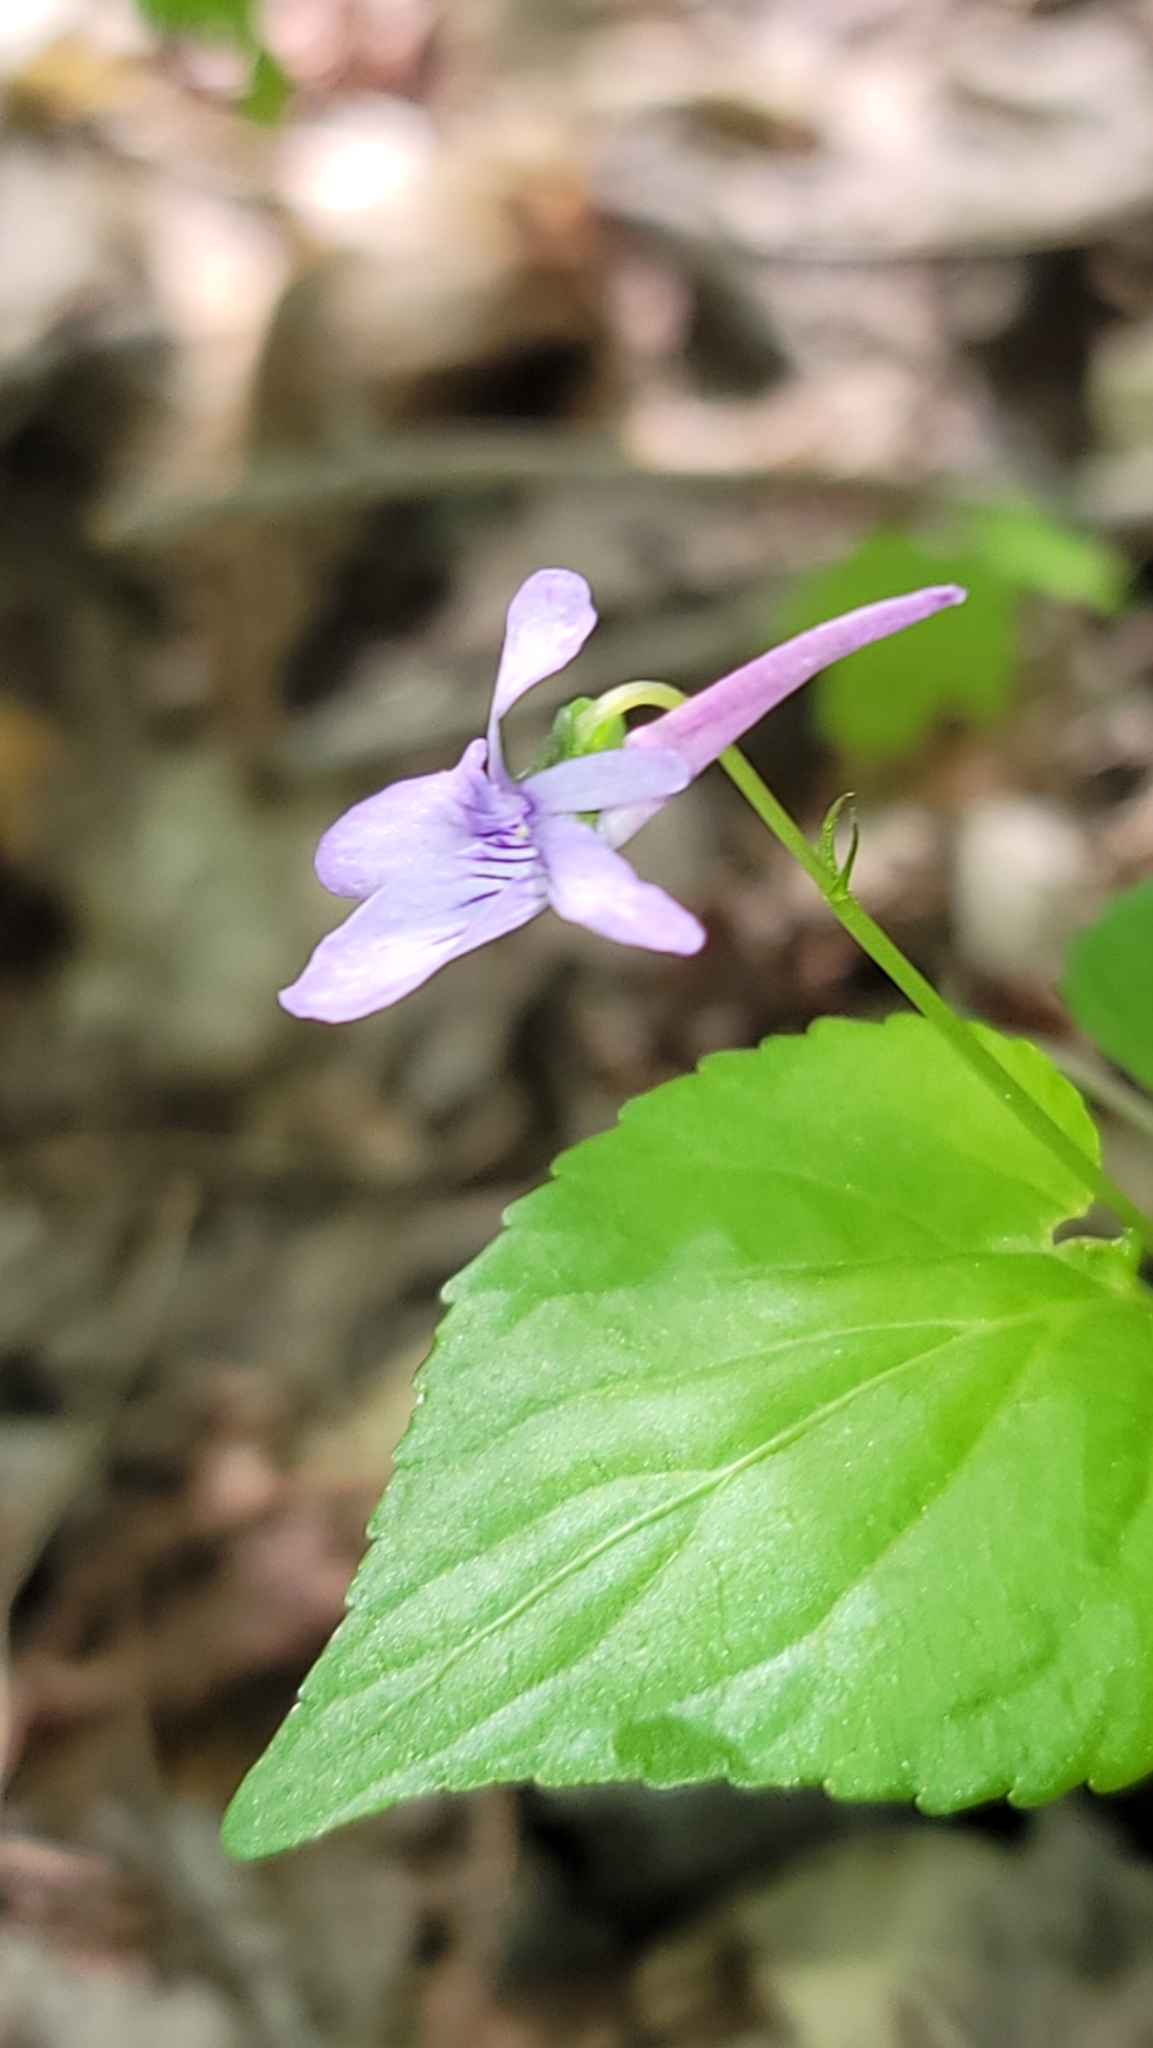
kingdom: Plantae
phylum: Tracheophyta
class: Magnoliopsida
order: Malpighiales
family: Violaceae
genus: Viola
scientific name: Viola rostrata
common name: Long-spur violet
